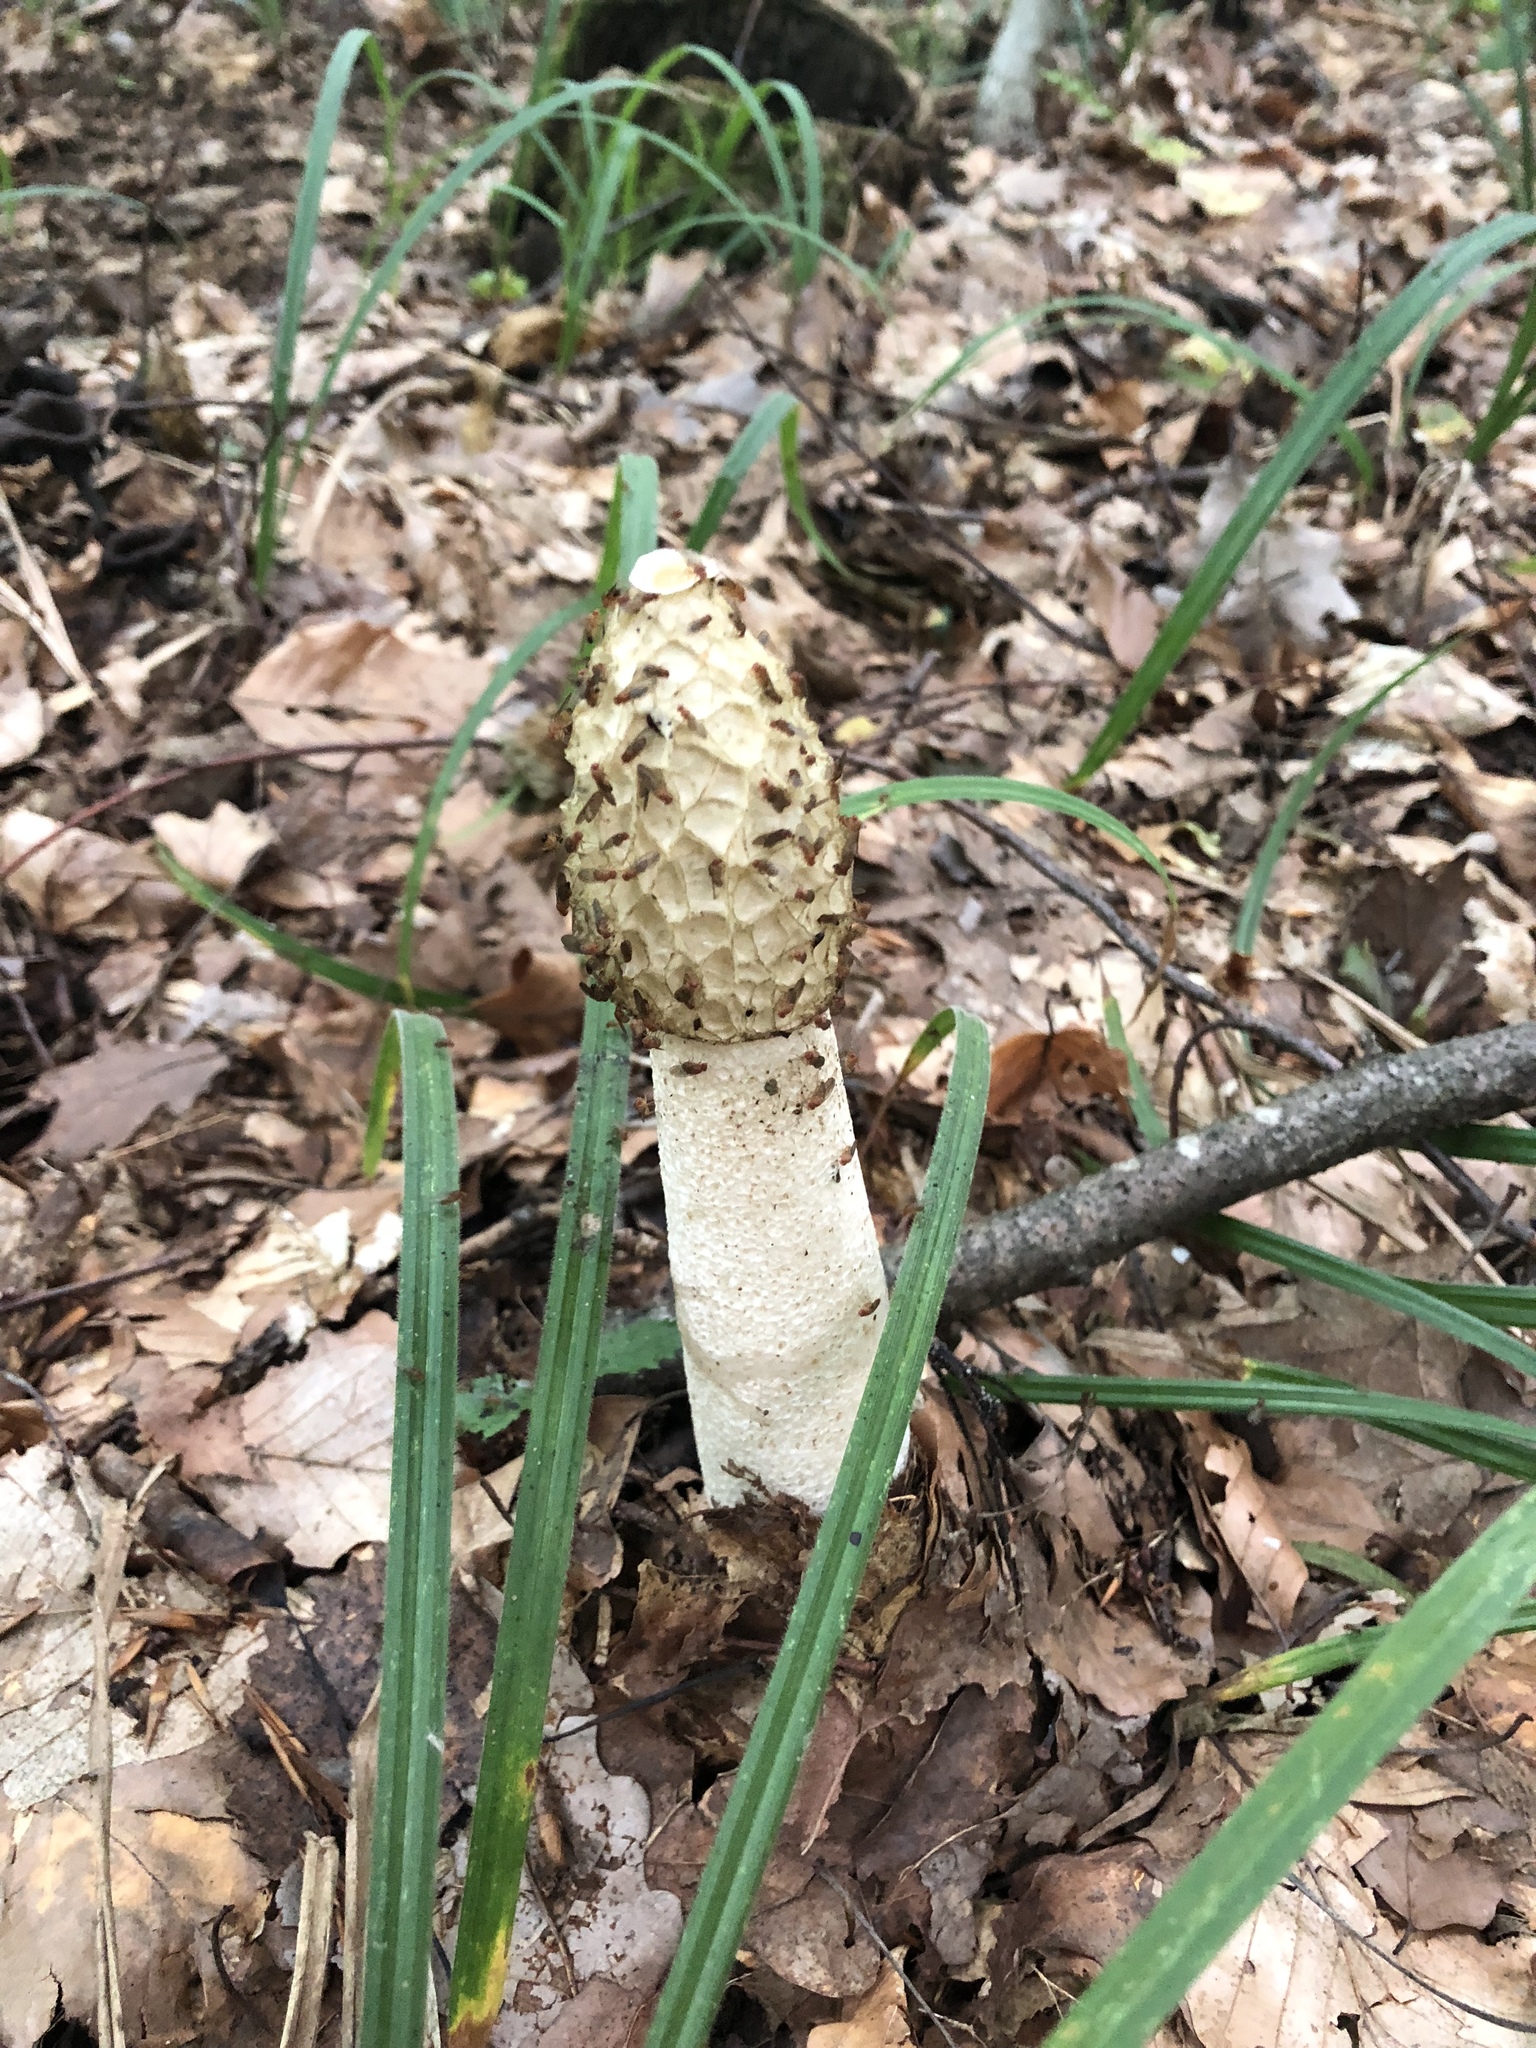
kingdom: Fungi
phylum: Basidiomycota
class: Agaricomycetes
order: Phallales
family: Phallaceae
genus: Phallus
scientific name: Phallus impudicus
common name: Common stinkhorn
